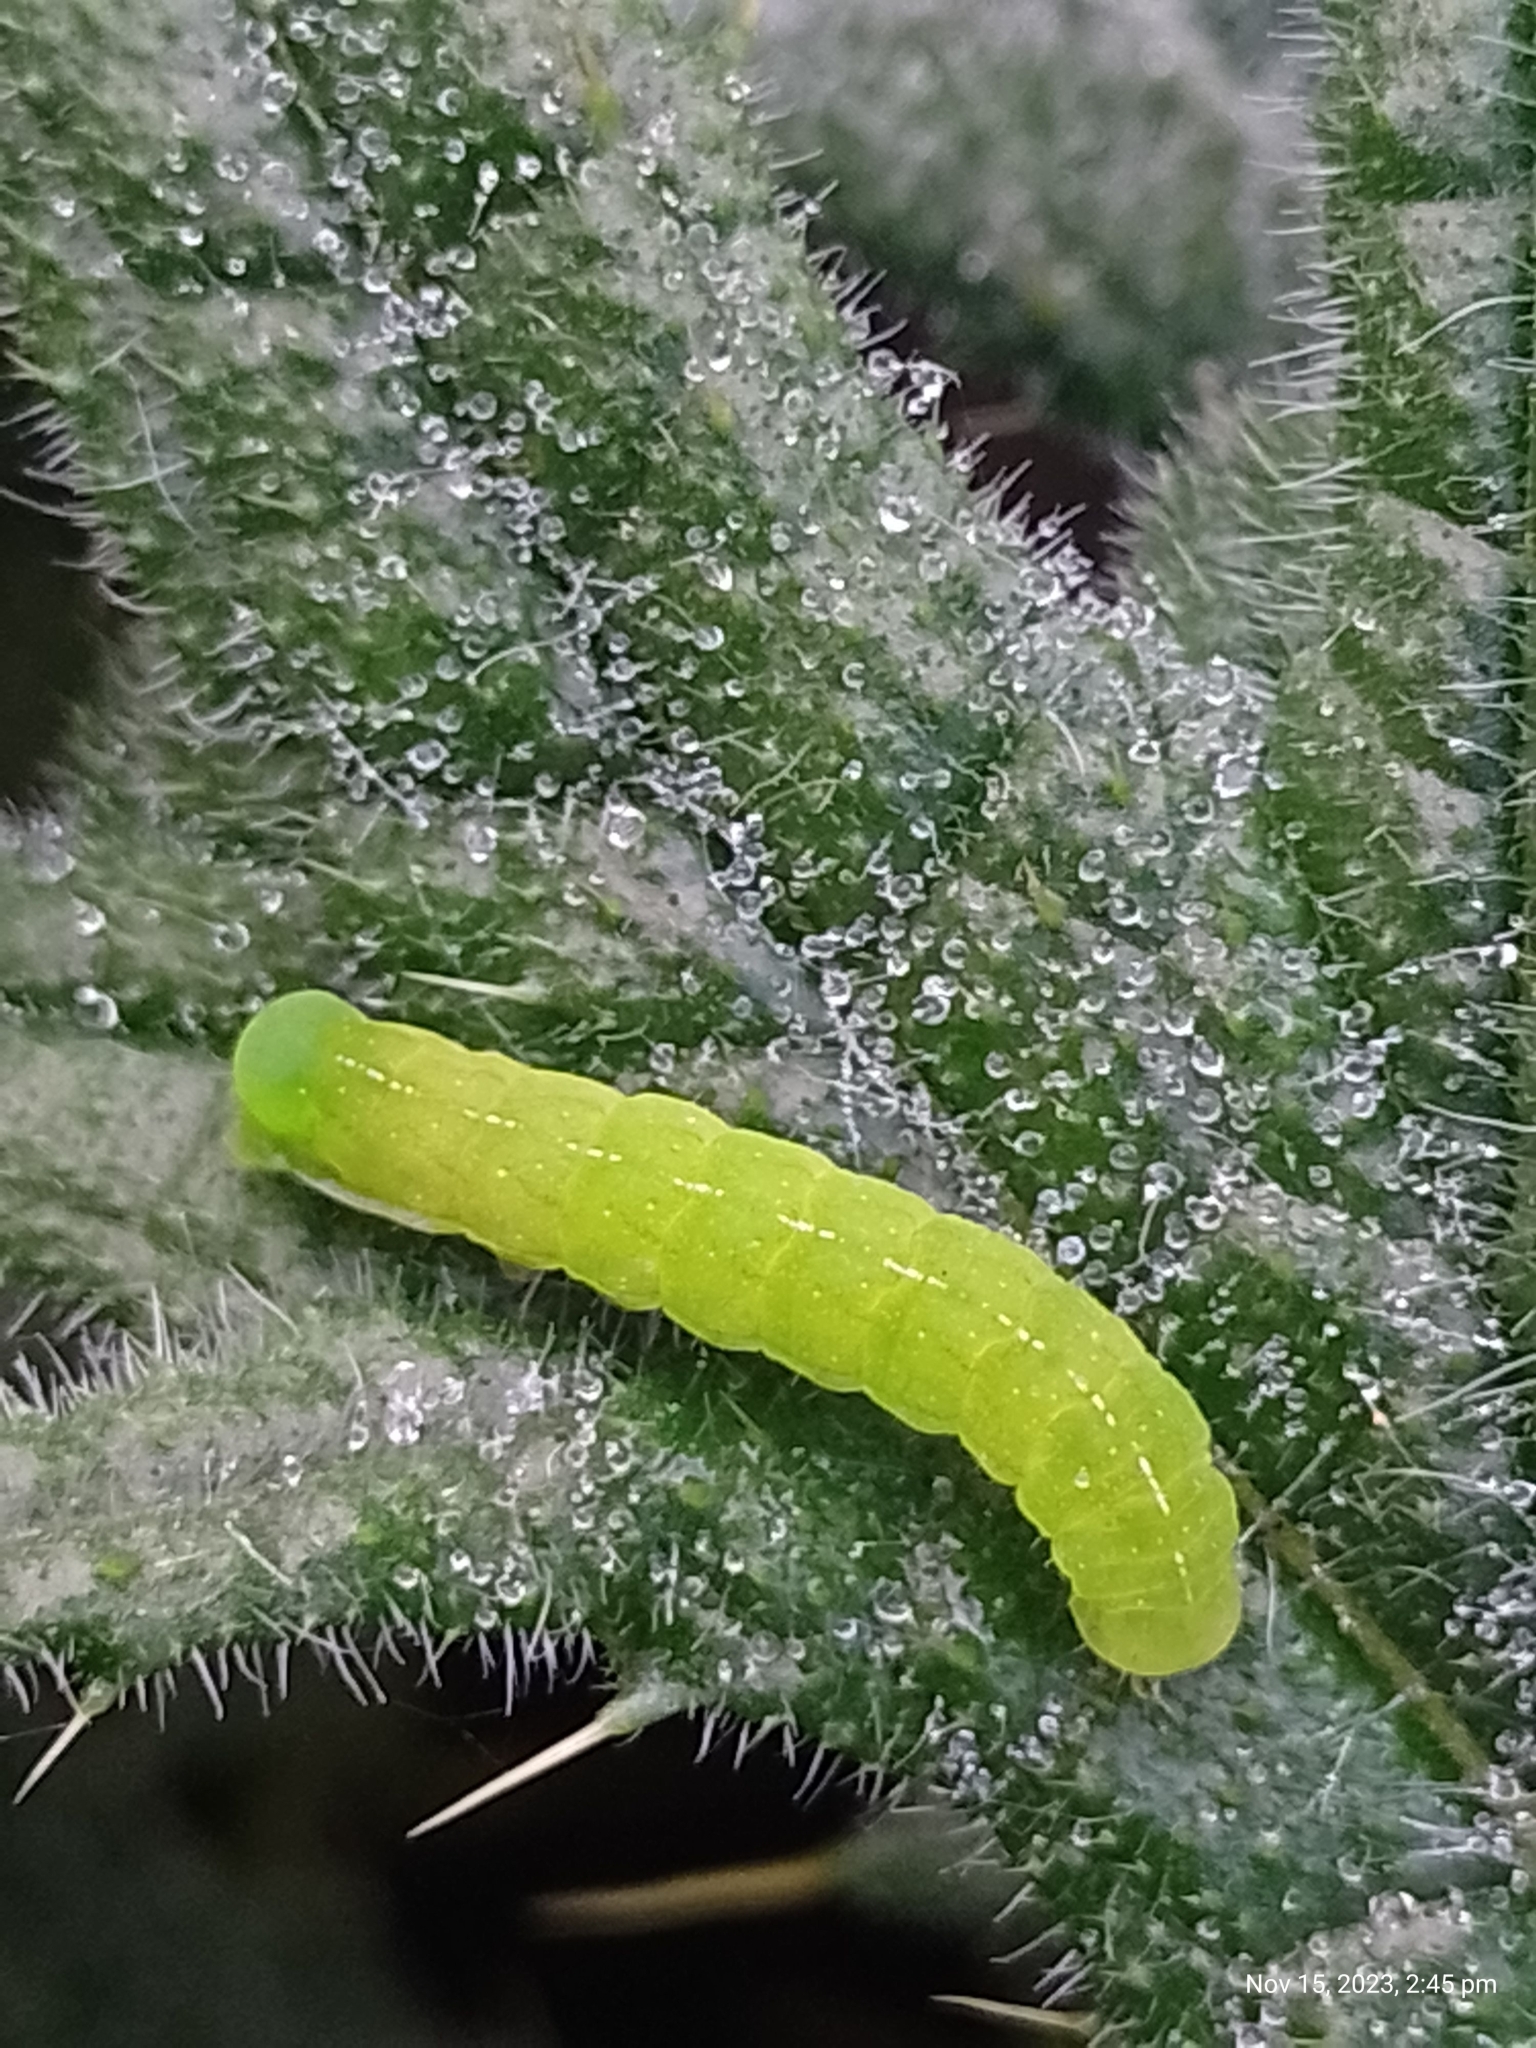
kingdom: Animalia
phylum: Arthropoda
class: Insecta
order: Lepidoptera
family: Noctuidae
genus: Phlogophora
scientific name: Phlogophora meticulosa
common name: Angle shades
